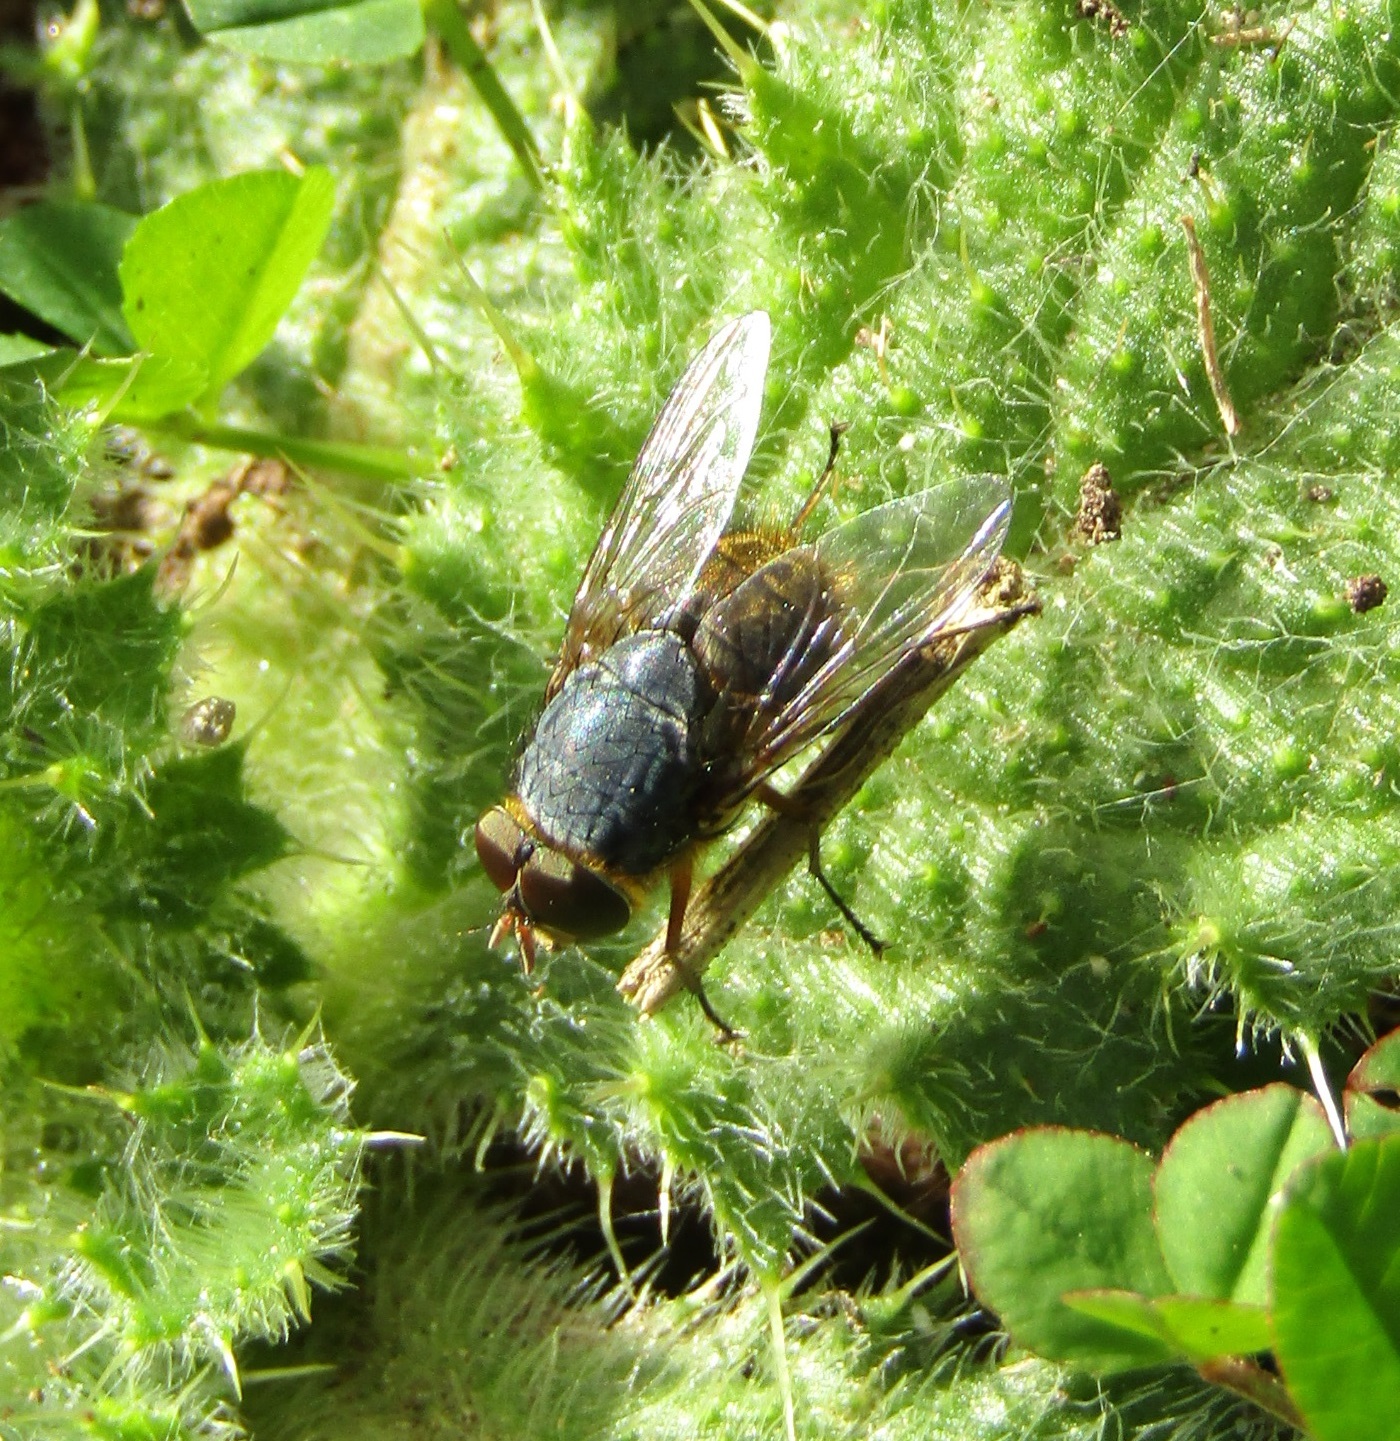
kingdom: Animalia
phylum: Arthropoda
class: Insecta
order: Diptera
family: Calliphoridae
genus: Calliphora
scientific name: Calliphora stygia
